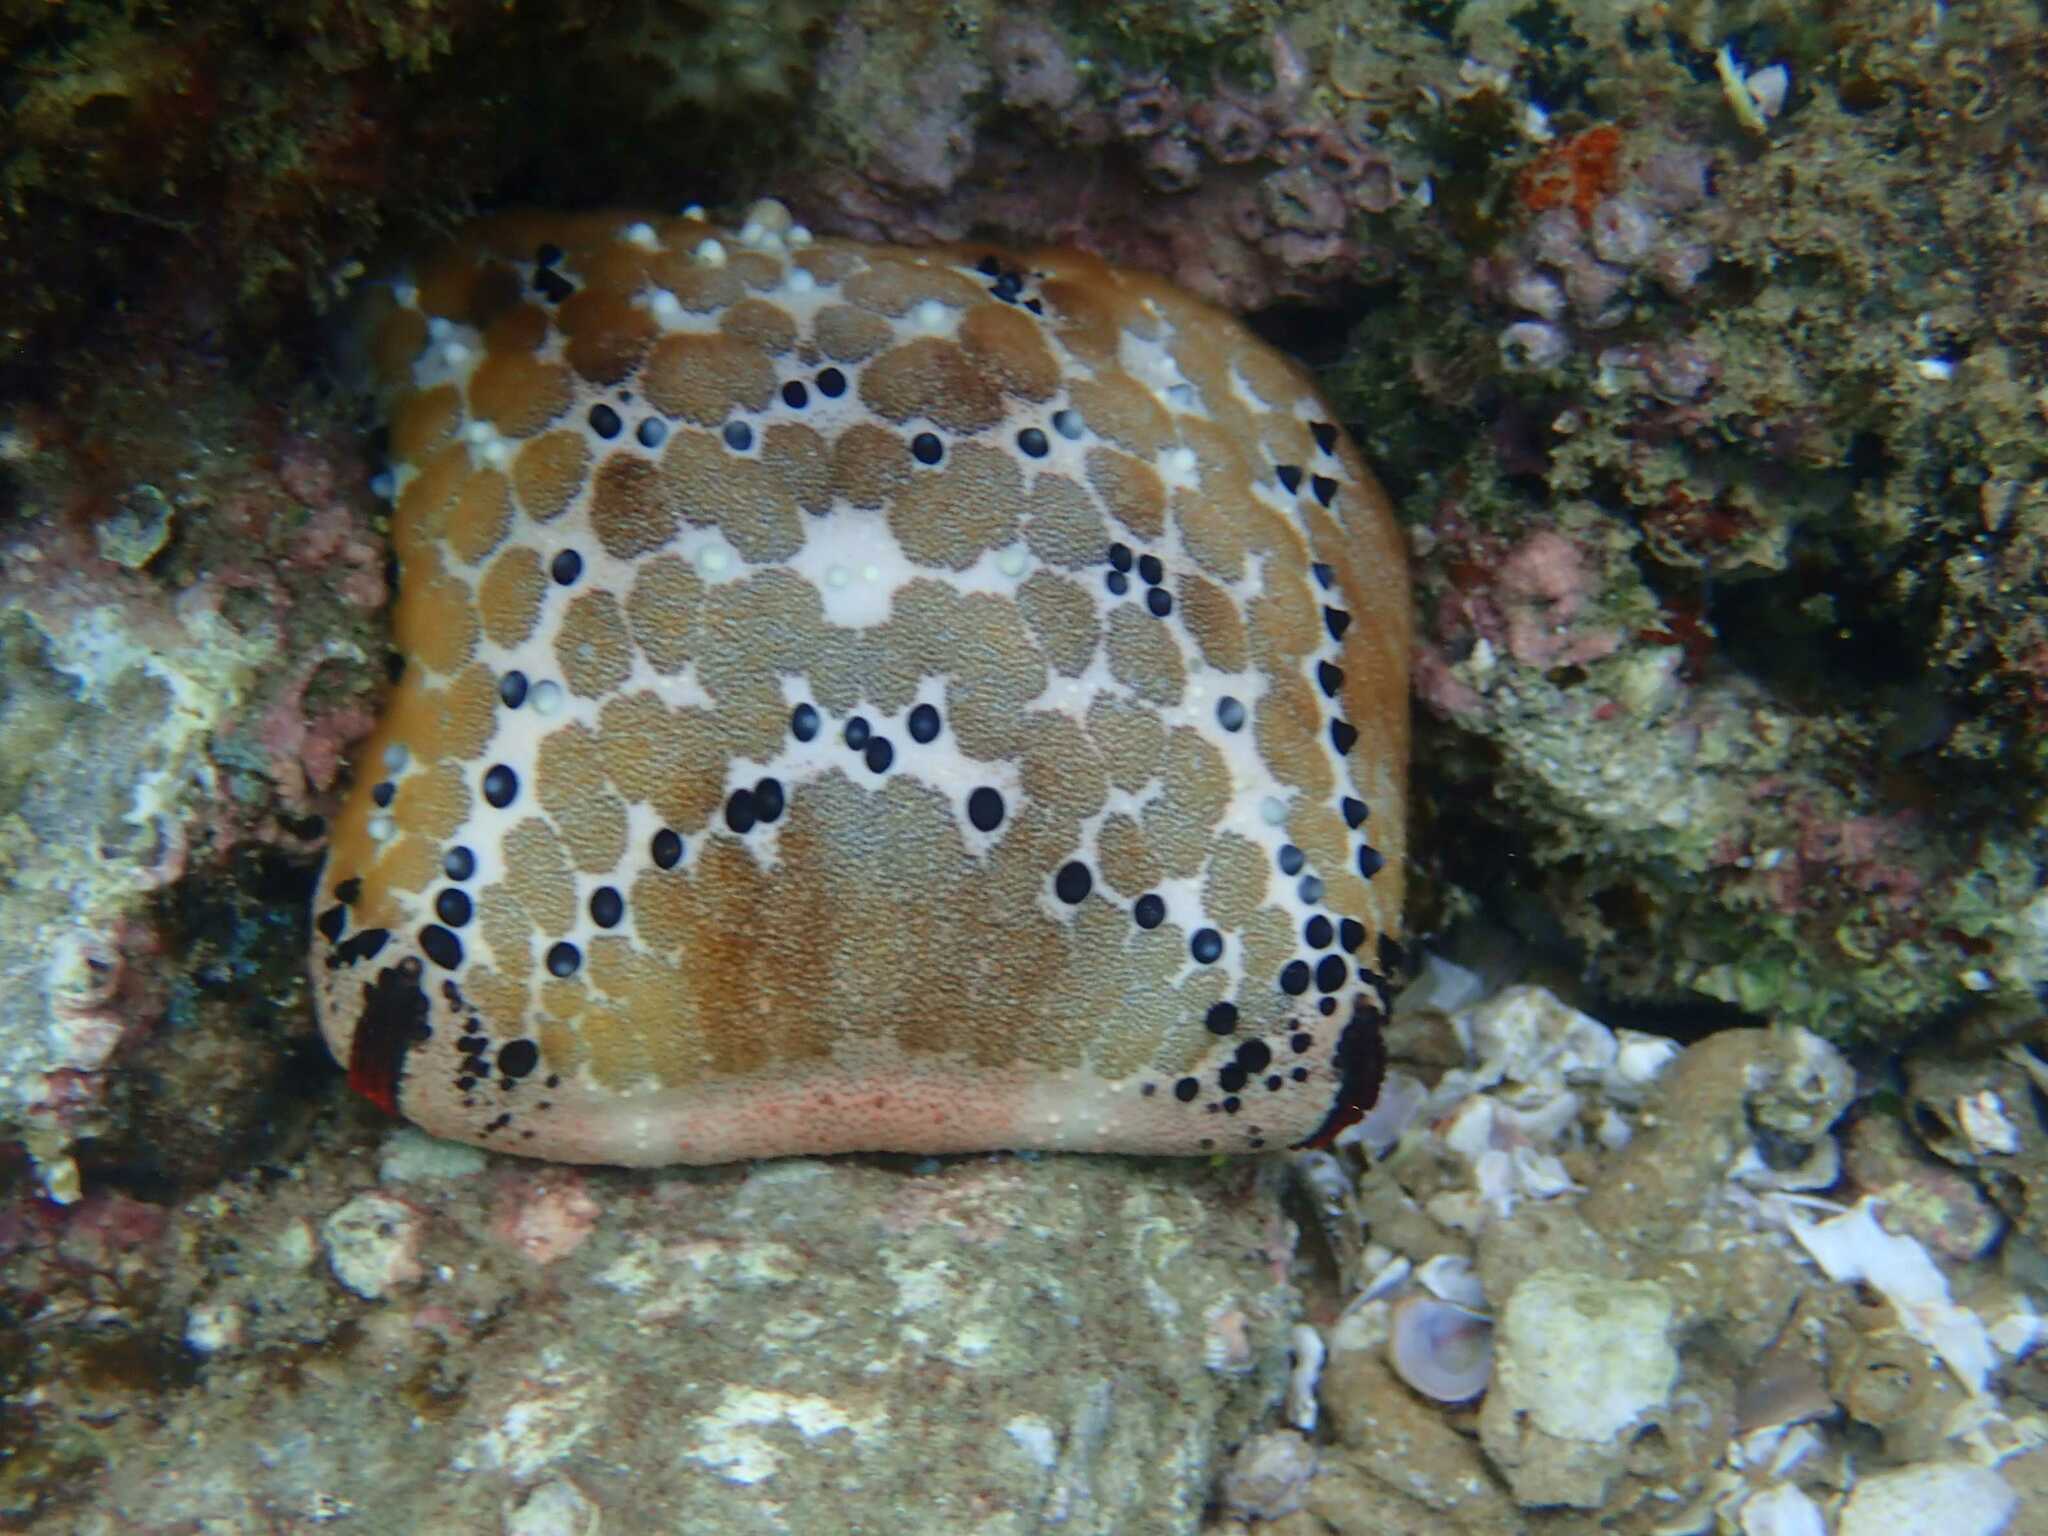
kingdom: Animalia
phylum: Echinodermata
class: Asteroidea
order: Valvatida
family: Oreasteridae
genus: Culcita
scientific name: Culcita schmideliana
